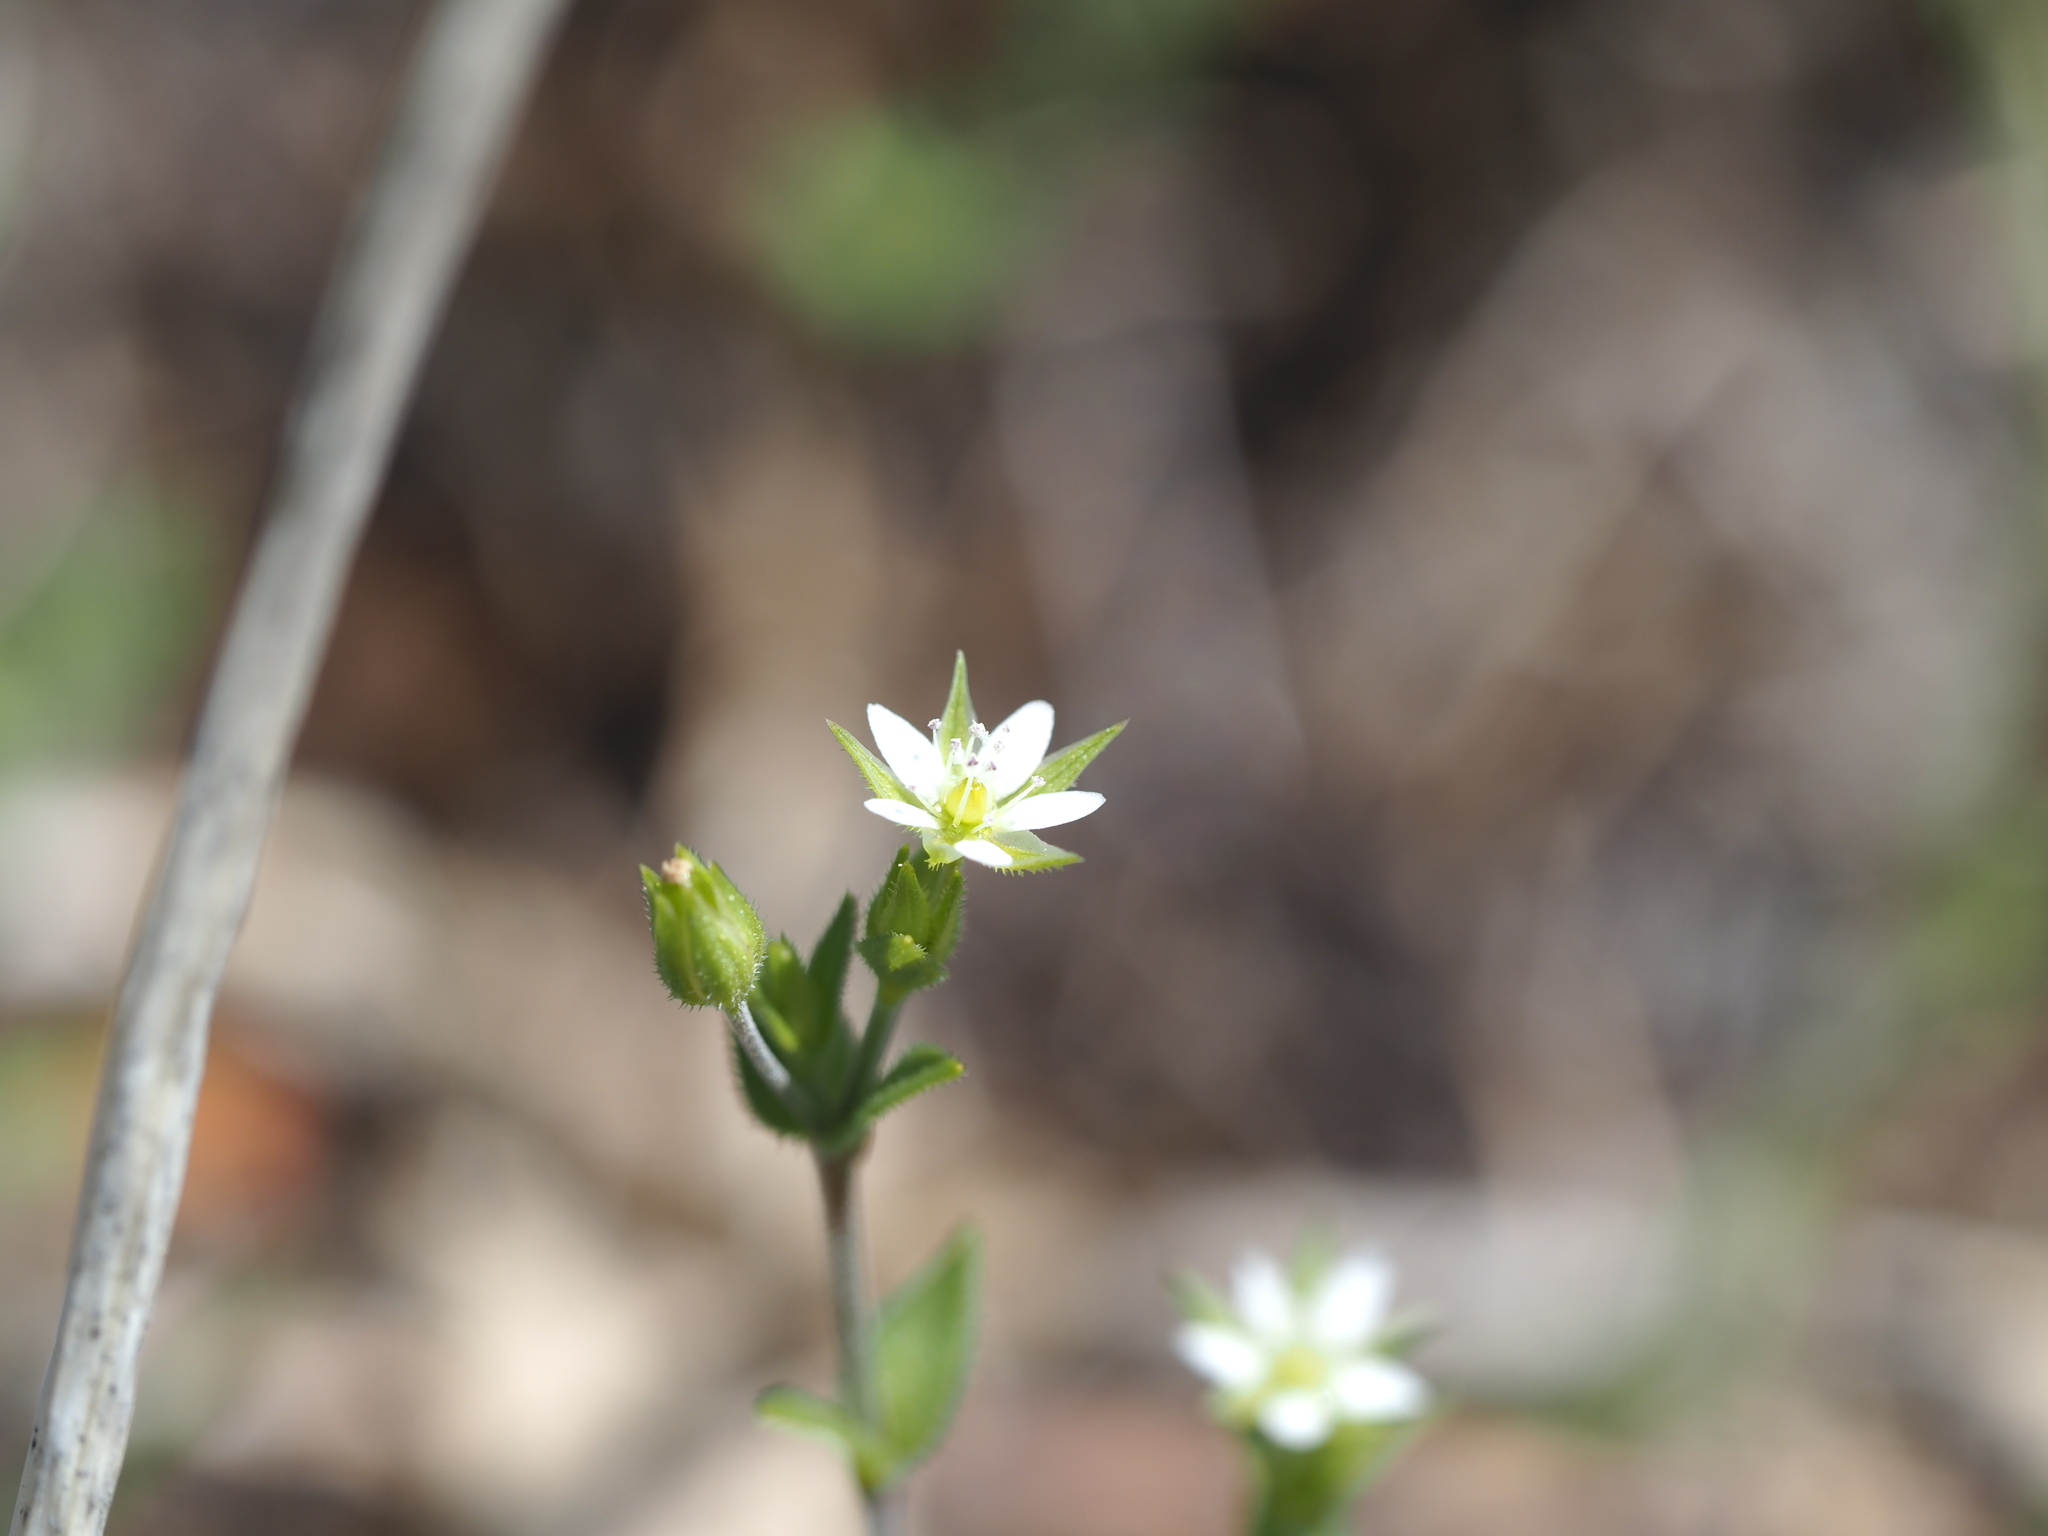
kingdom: Plantae
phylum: Tracheophyta
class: Magnoliopsida
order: Caryophyllales
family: Caryophyllaceae
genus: Arenaria
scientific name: Arenaria serpyllifolia
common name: Thyme-leaved sandwort
